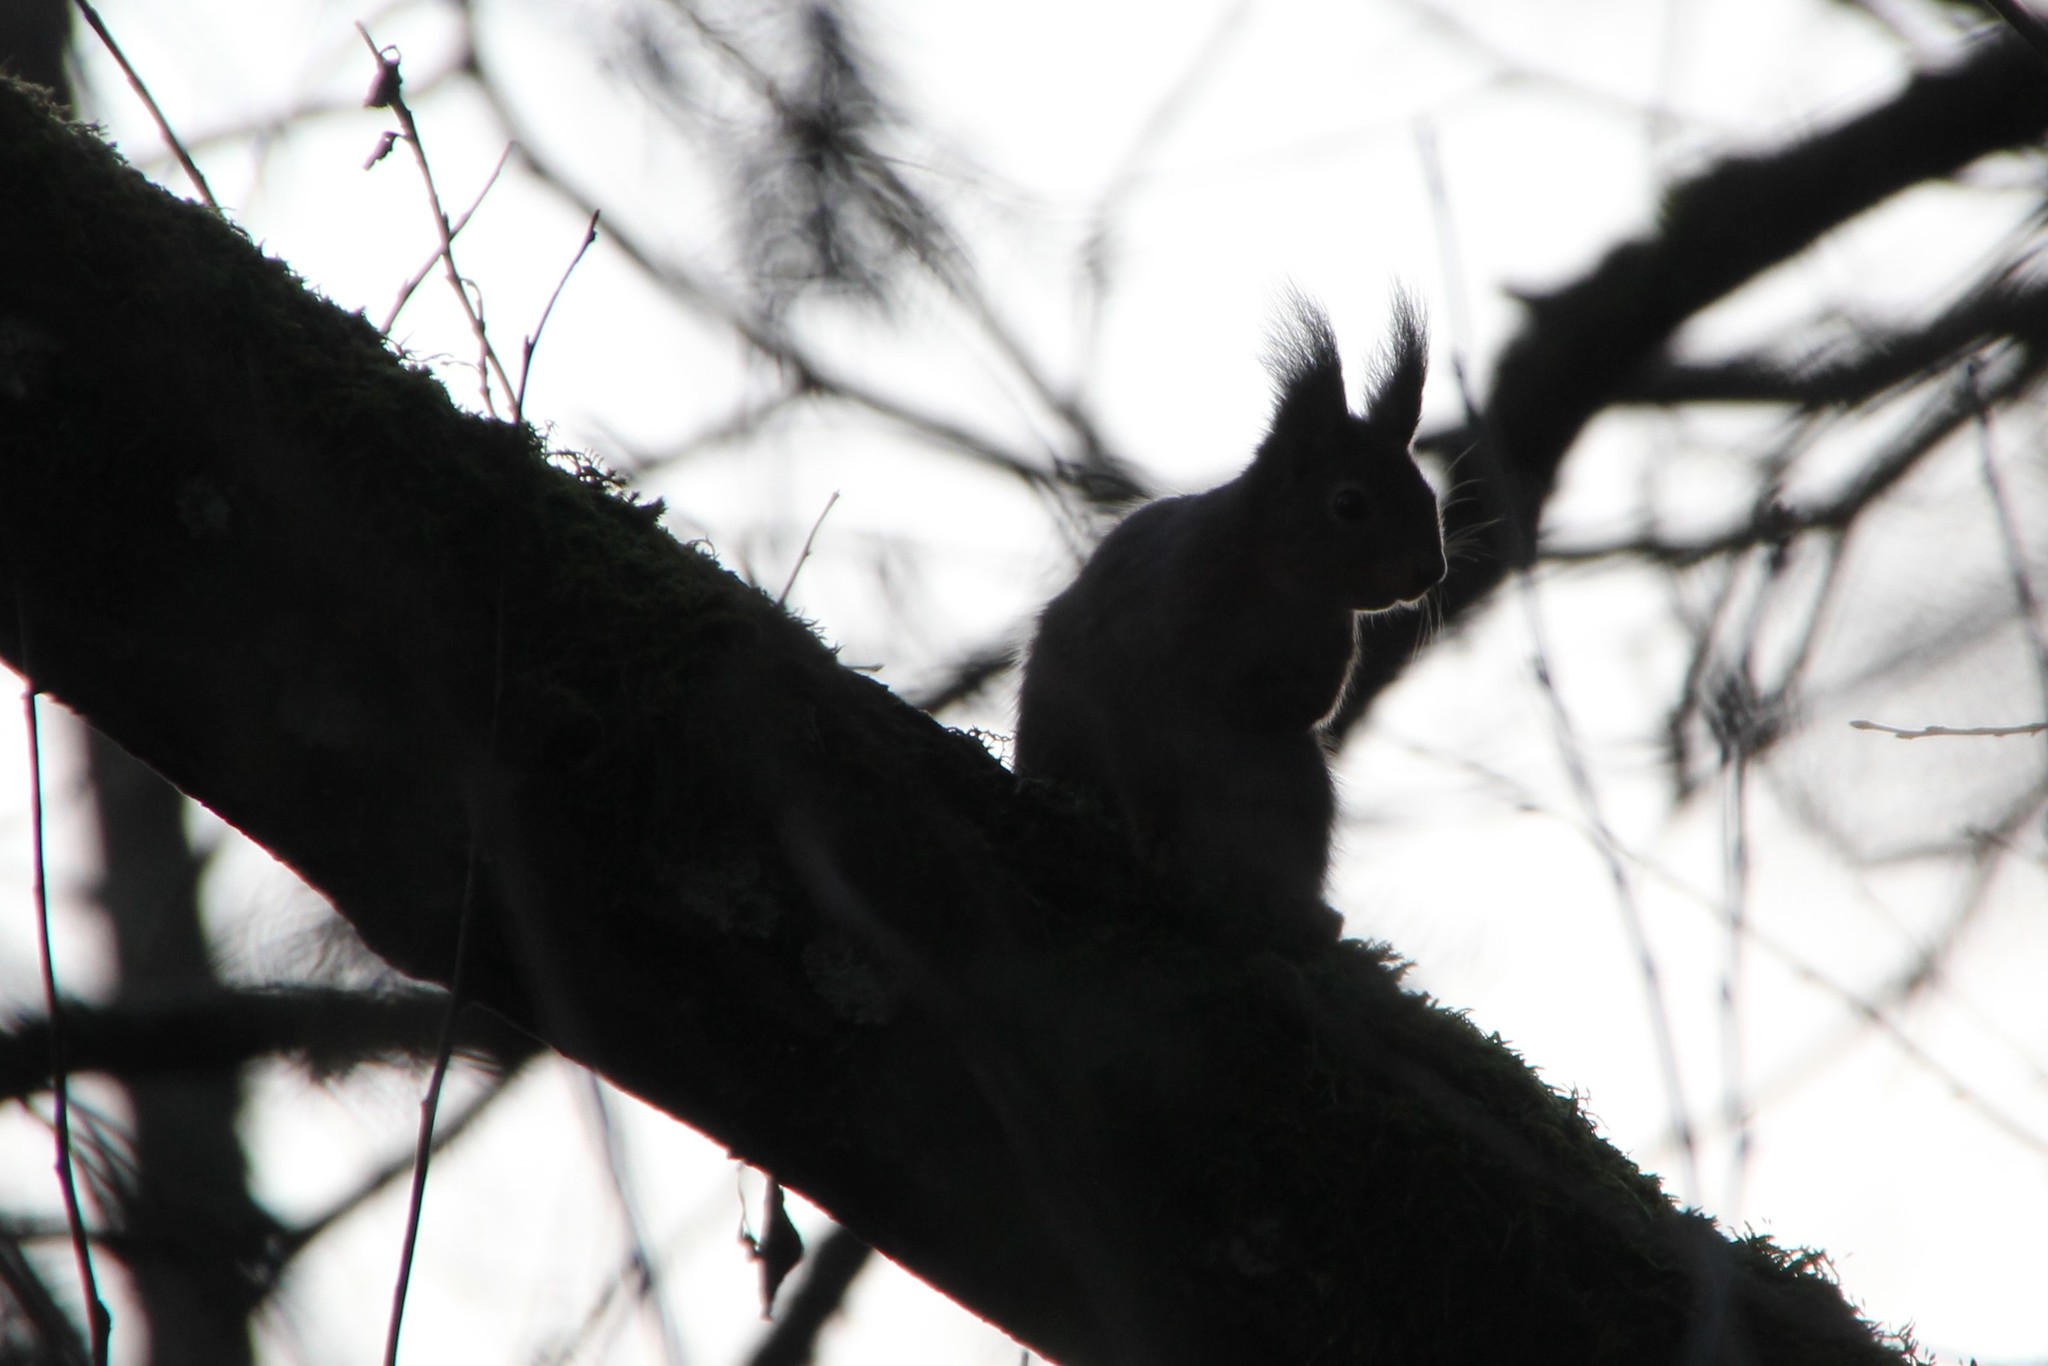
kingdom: Animalia
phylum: Chordata
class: Mammalia
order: Rodentia
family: Sciuridae
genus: Sciurus
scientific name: Sciurus vulgaris
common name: Eurasian red squirrel
